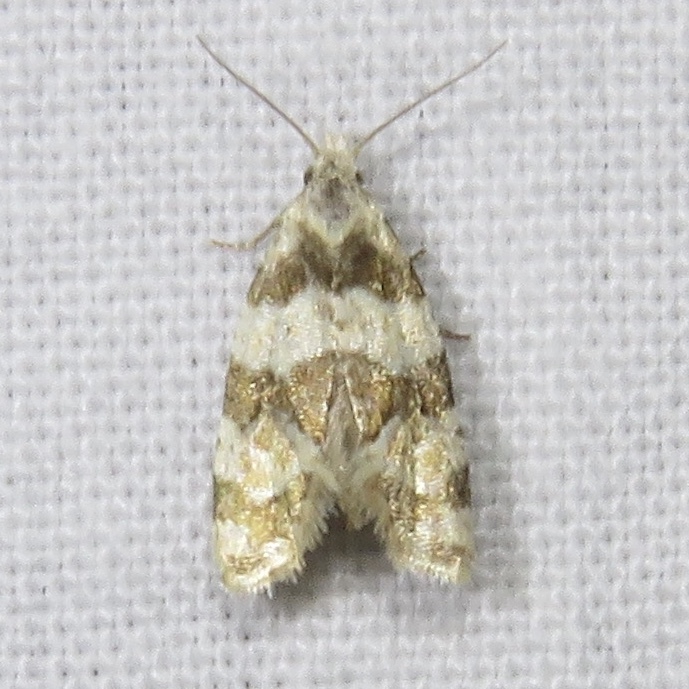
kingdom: Animalia
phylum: Arthropoda
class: Insecta
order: Lepidoptera
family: Tortricidae
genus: Aethes
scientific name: Aethes argentilimitana
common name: Silver-bordered aethes
